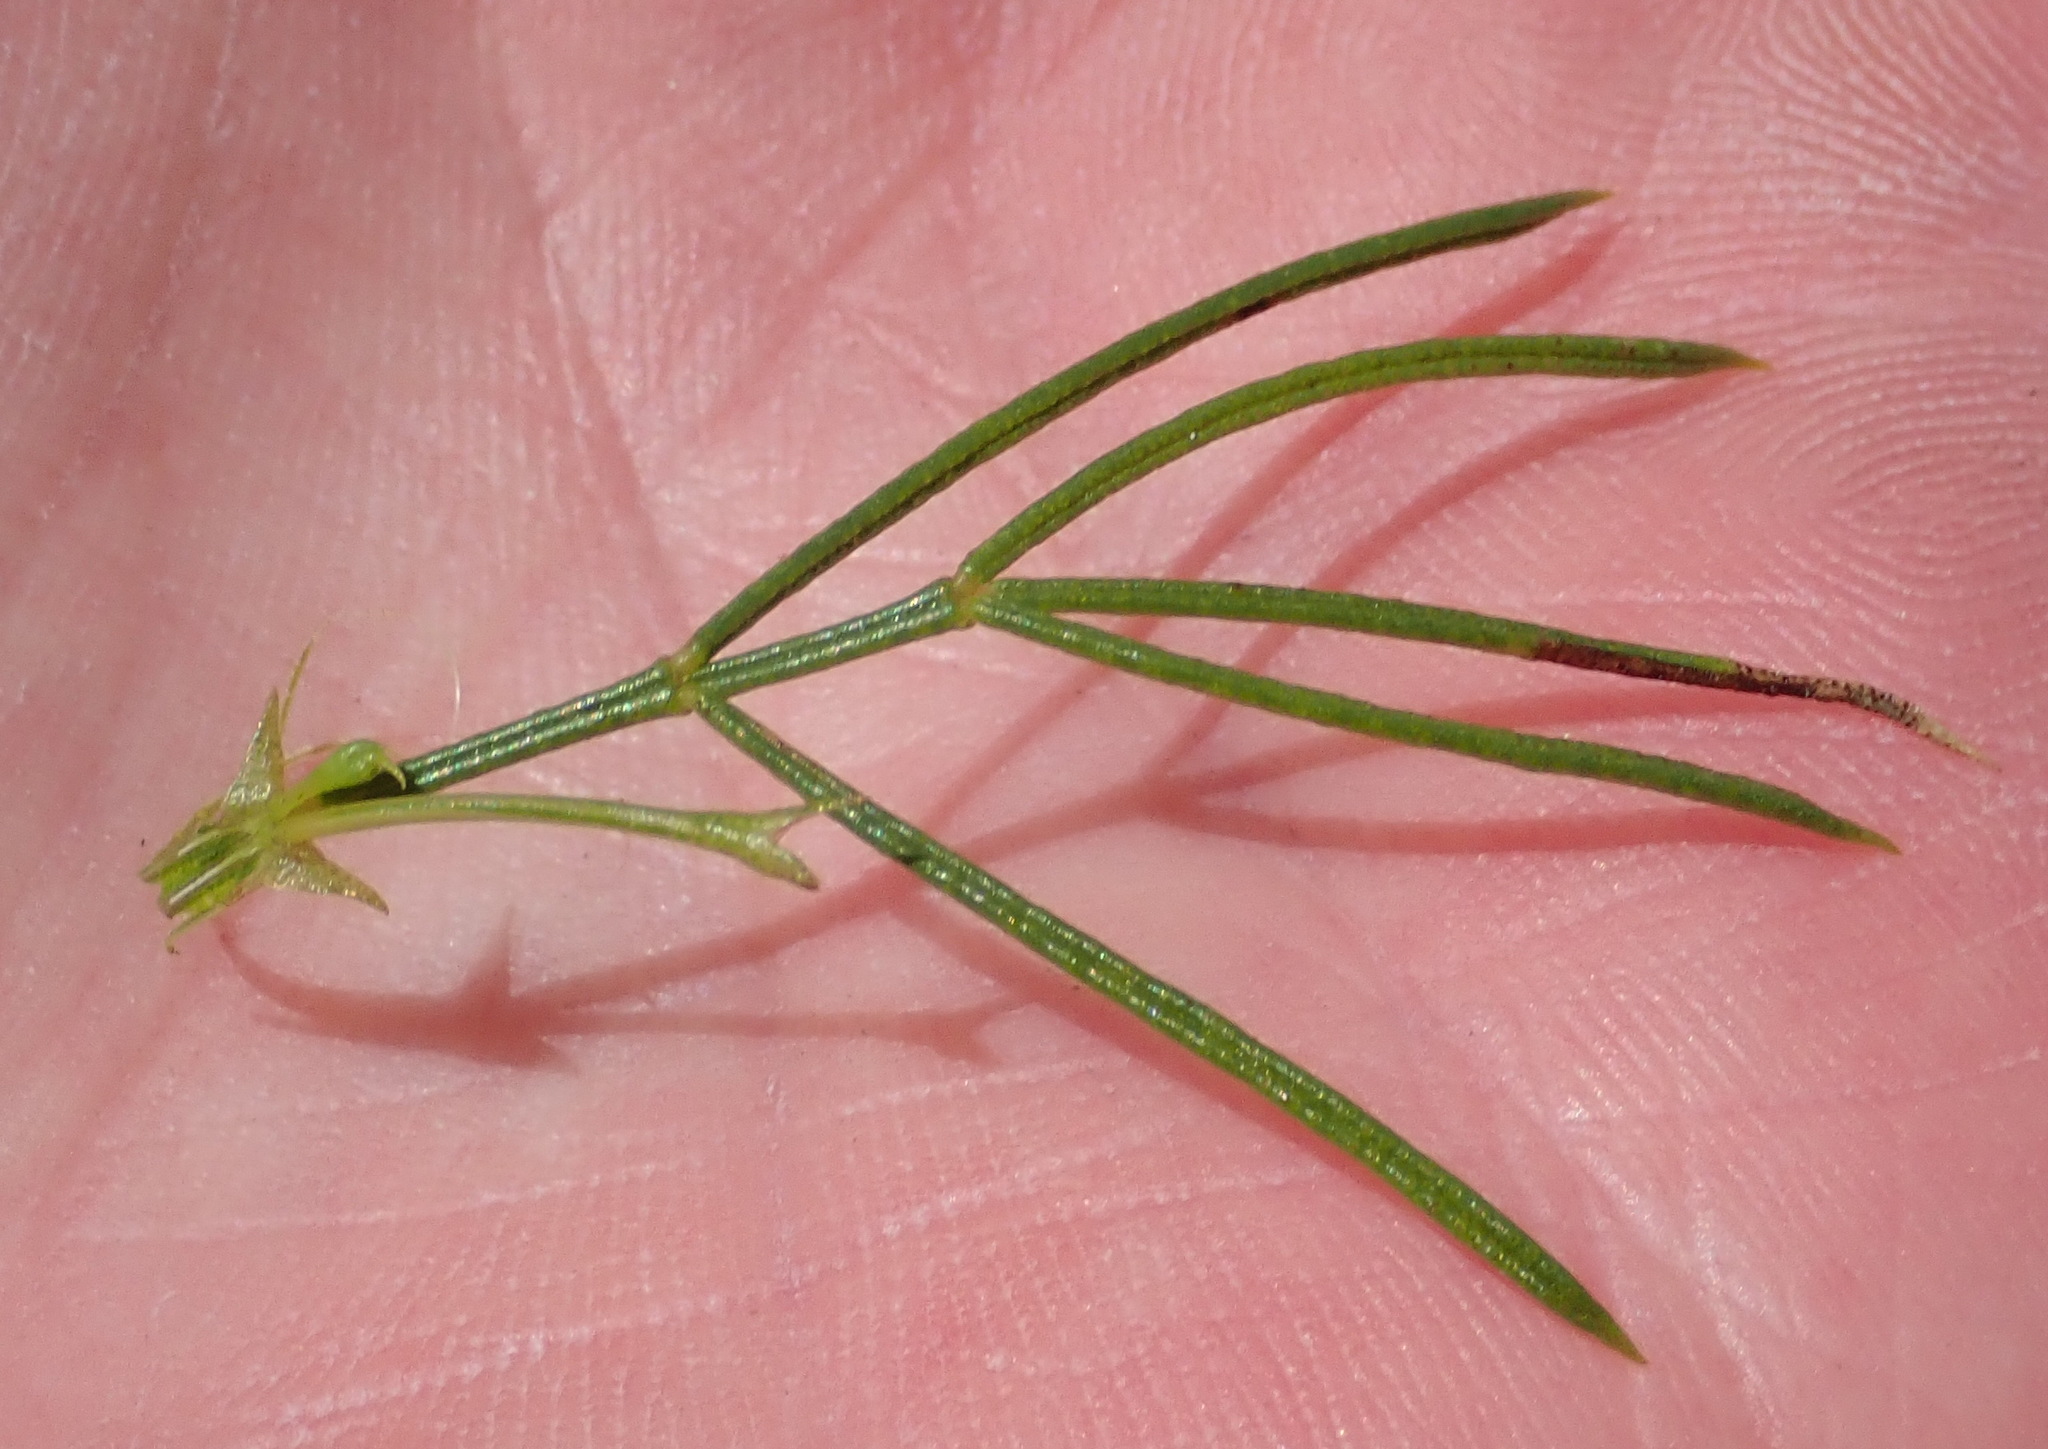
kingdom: Plantae
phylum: Tracheophyta
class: Magnoliopsida
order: Fabales
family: Fabaceae
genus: Psoralea
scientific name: Psoralea laevigata
